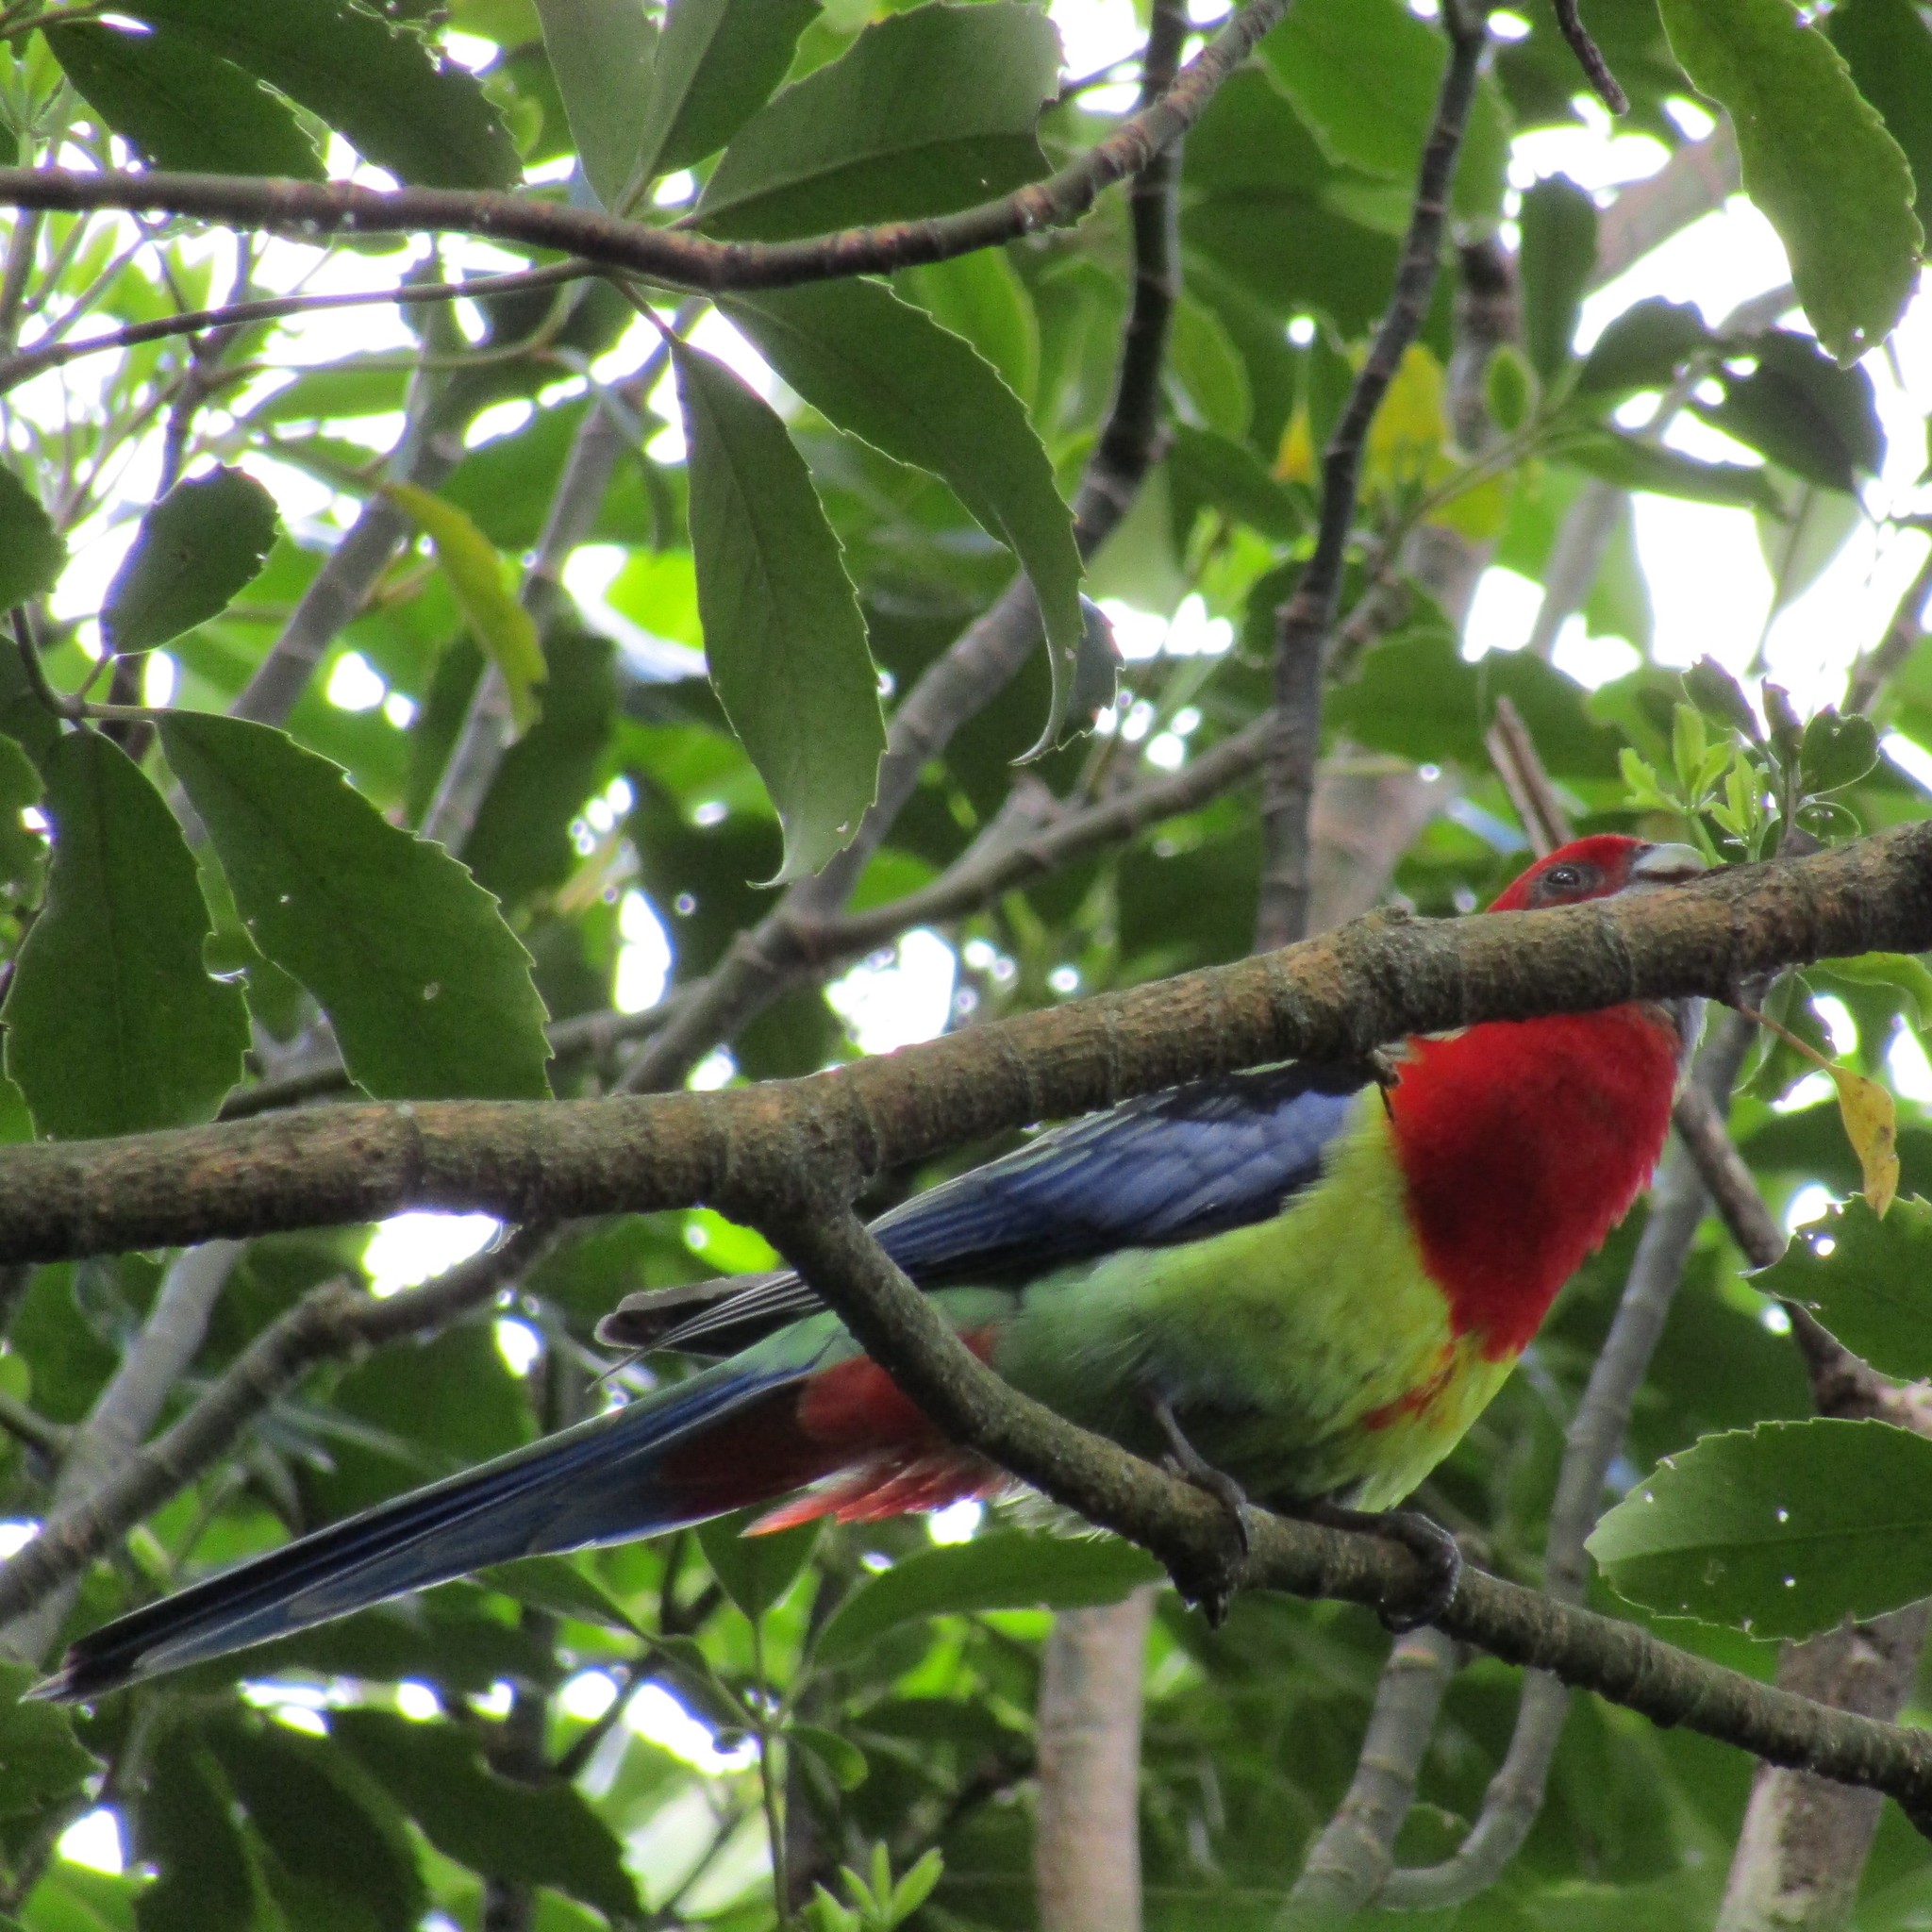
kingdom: Animalia
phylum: Chordata
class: Aves
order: Psittaciformes
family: Psittacidae
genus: Platycercus
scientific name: Platycercus eximius
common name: Eastern rosella
